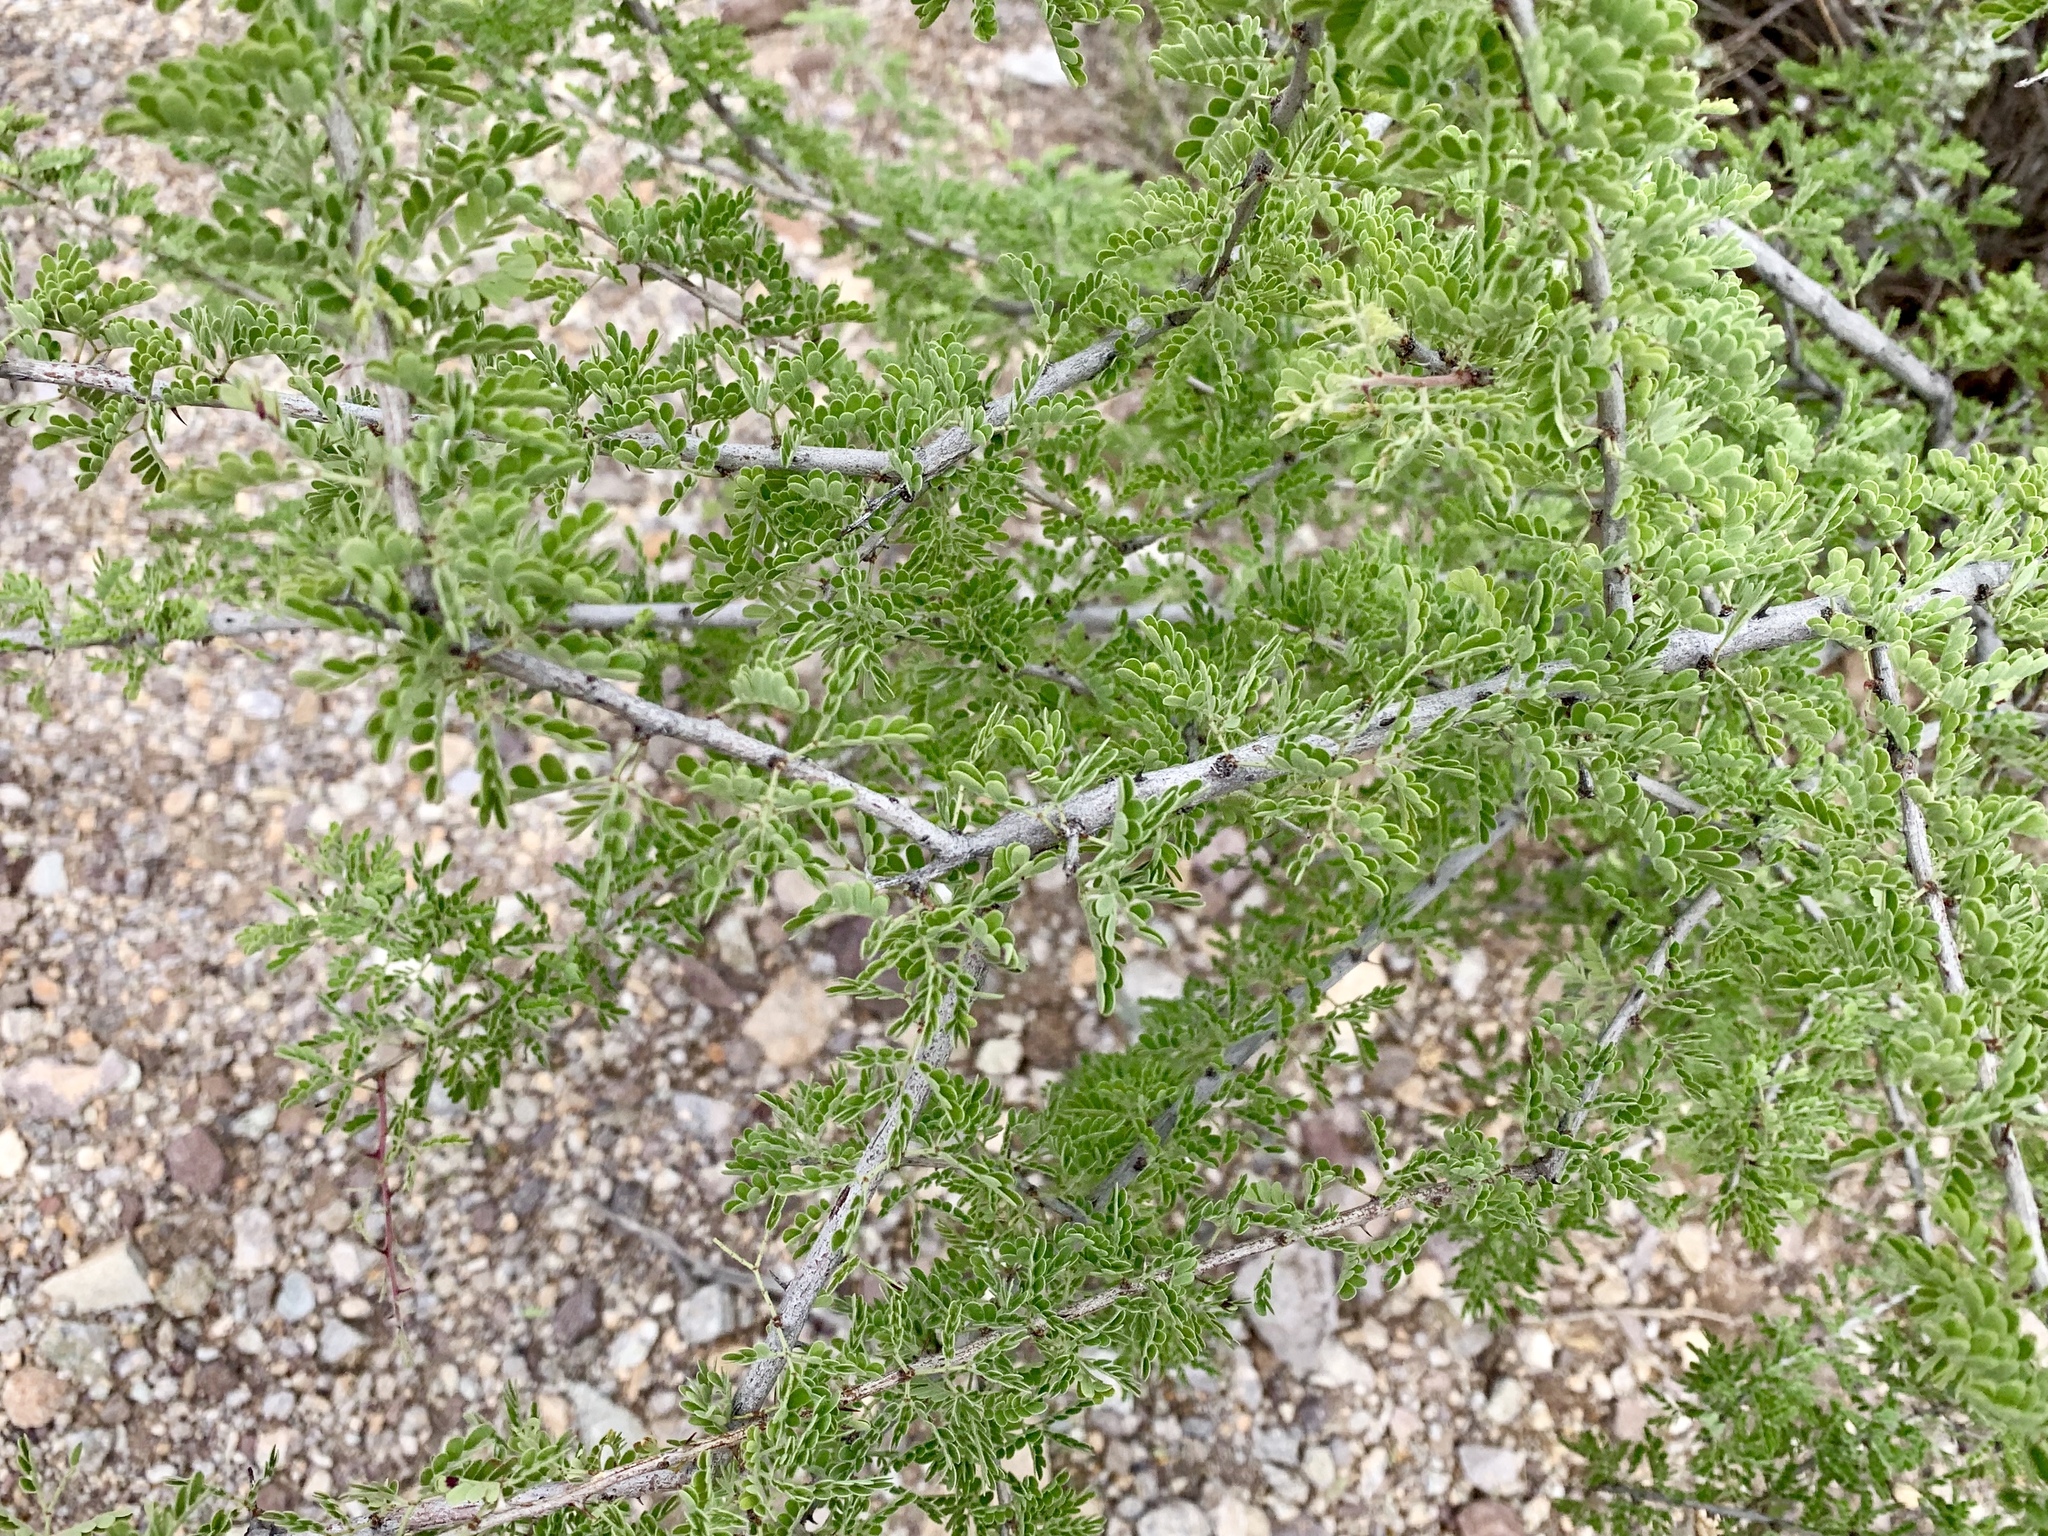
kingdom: Plantae
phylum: Tracheophyta
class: Magnoliopsida
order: Fabales
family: Fabaceae
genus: Senegalia
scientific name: Senegalia greggii
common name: Texas-mimosa
